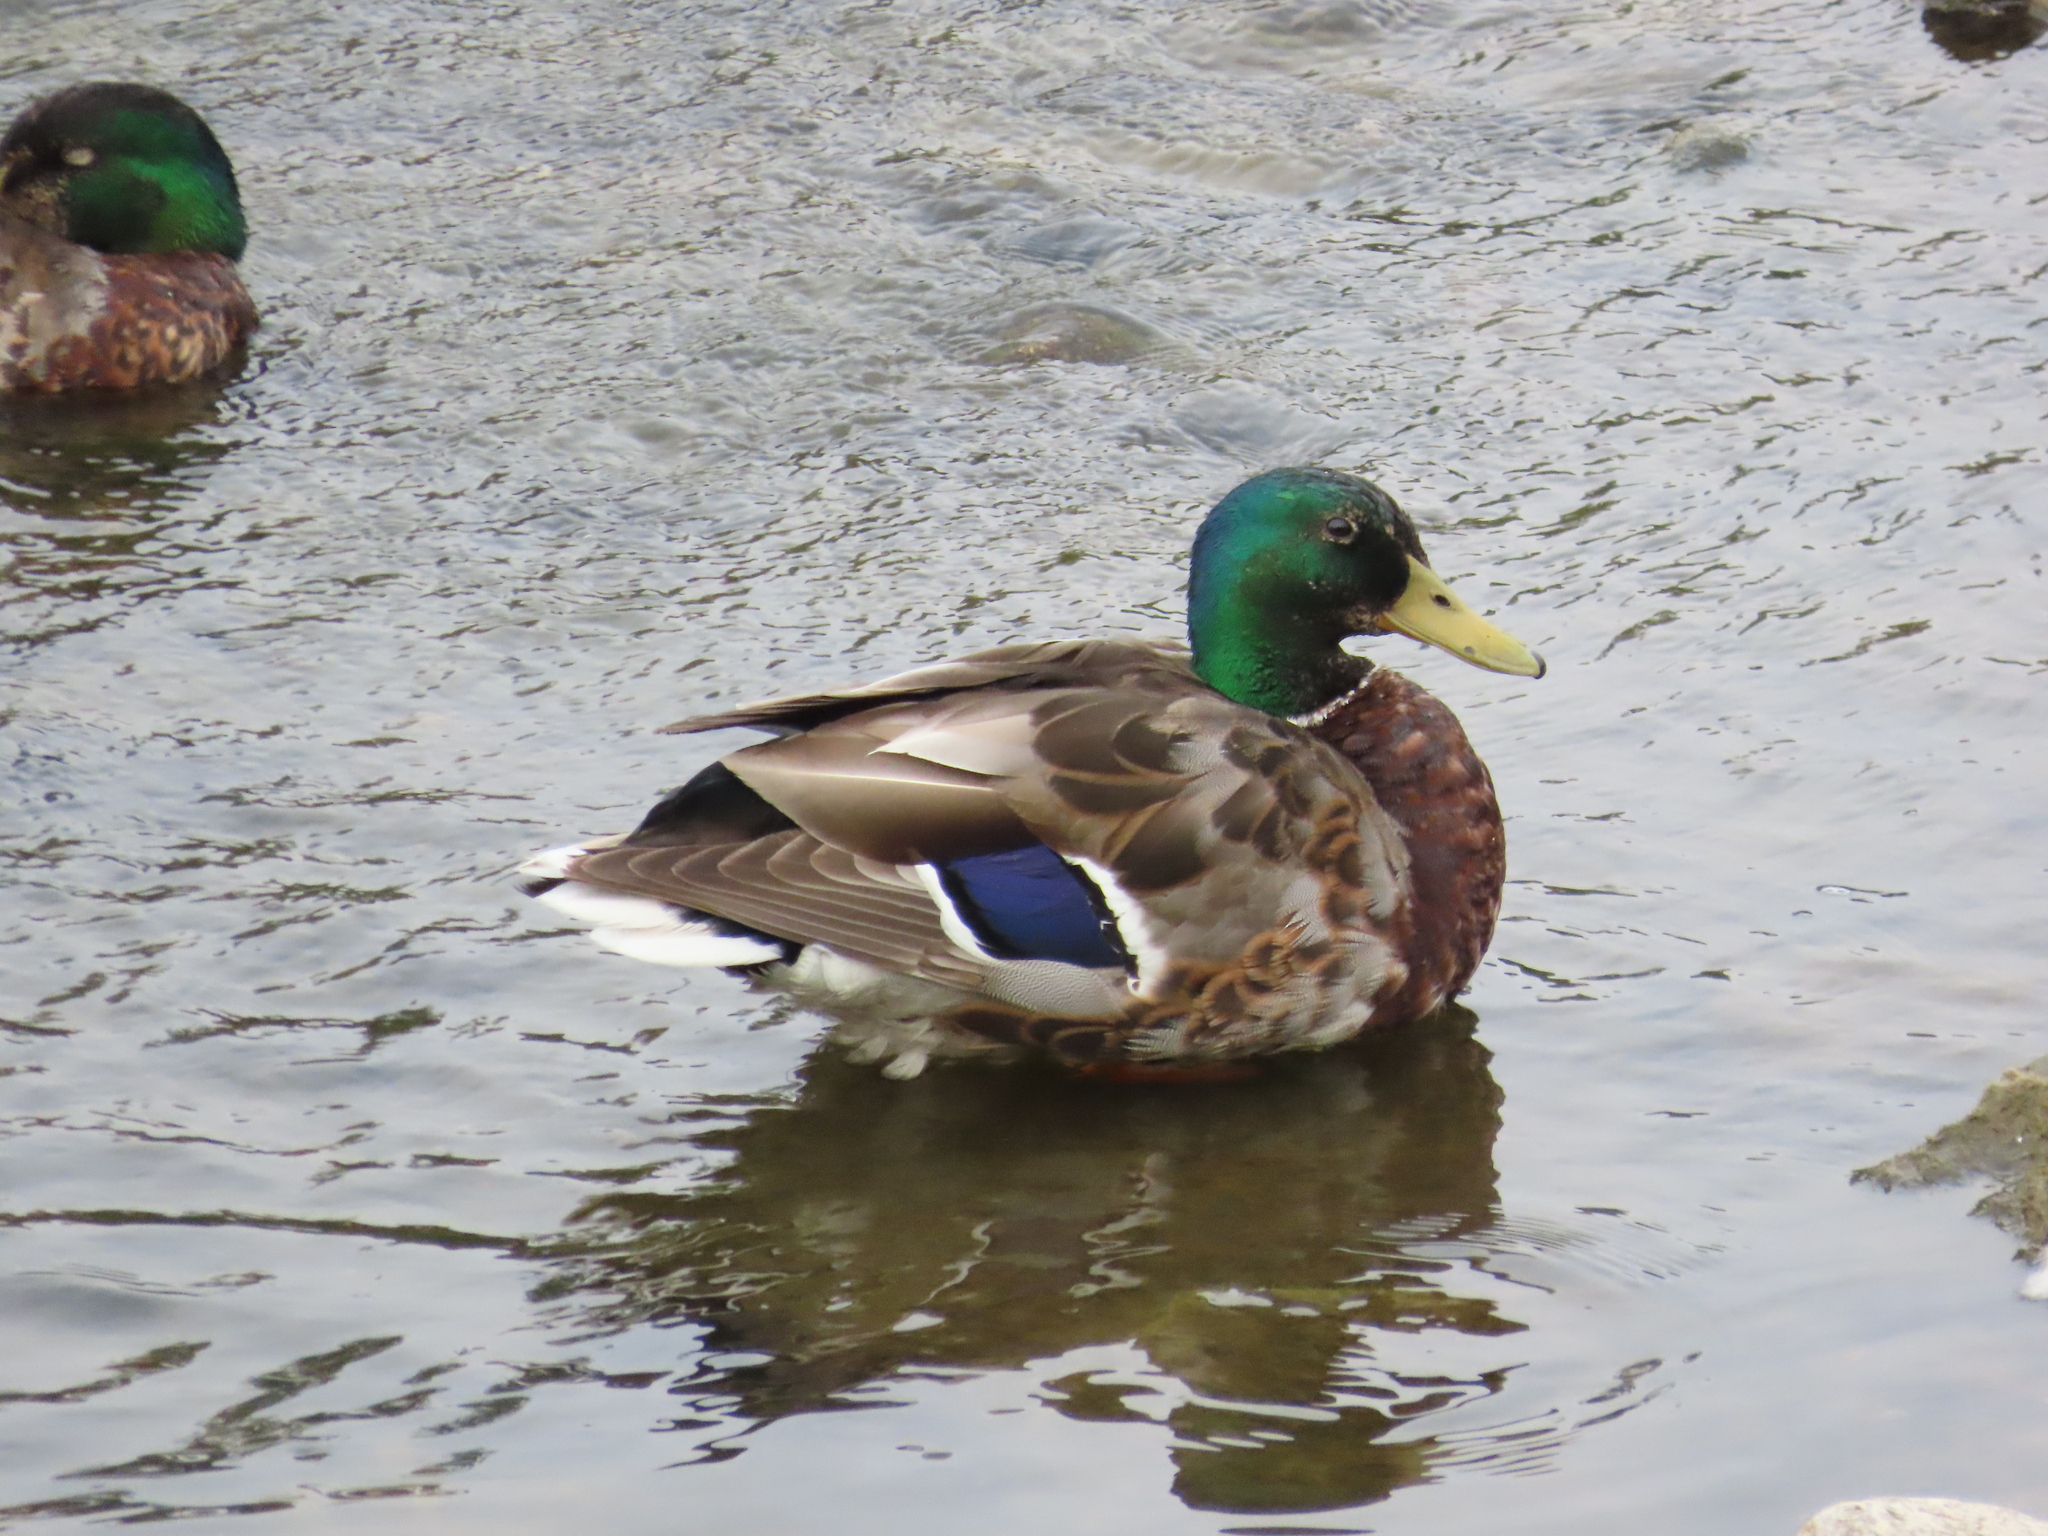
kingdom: Animalia
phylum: Chordata
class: Aves
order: Anseriformes
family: Anatidae
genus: Anas
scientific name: Anas platyrhynchos
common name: Mallard
